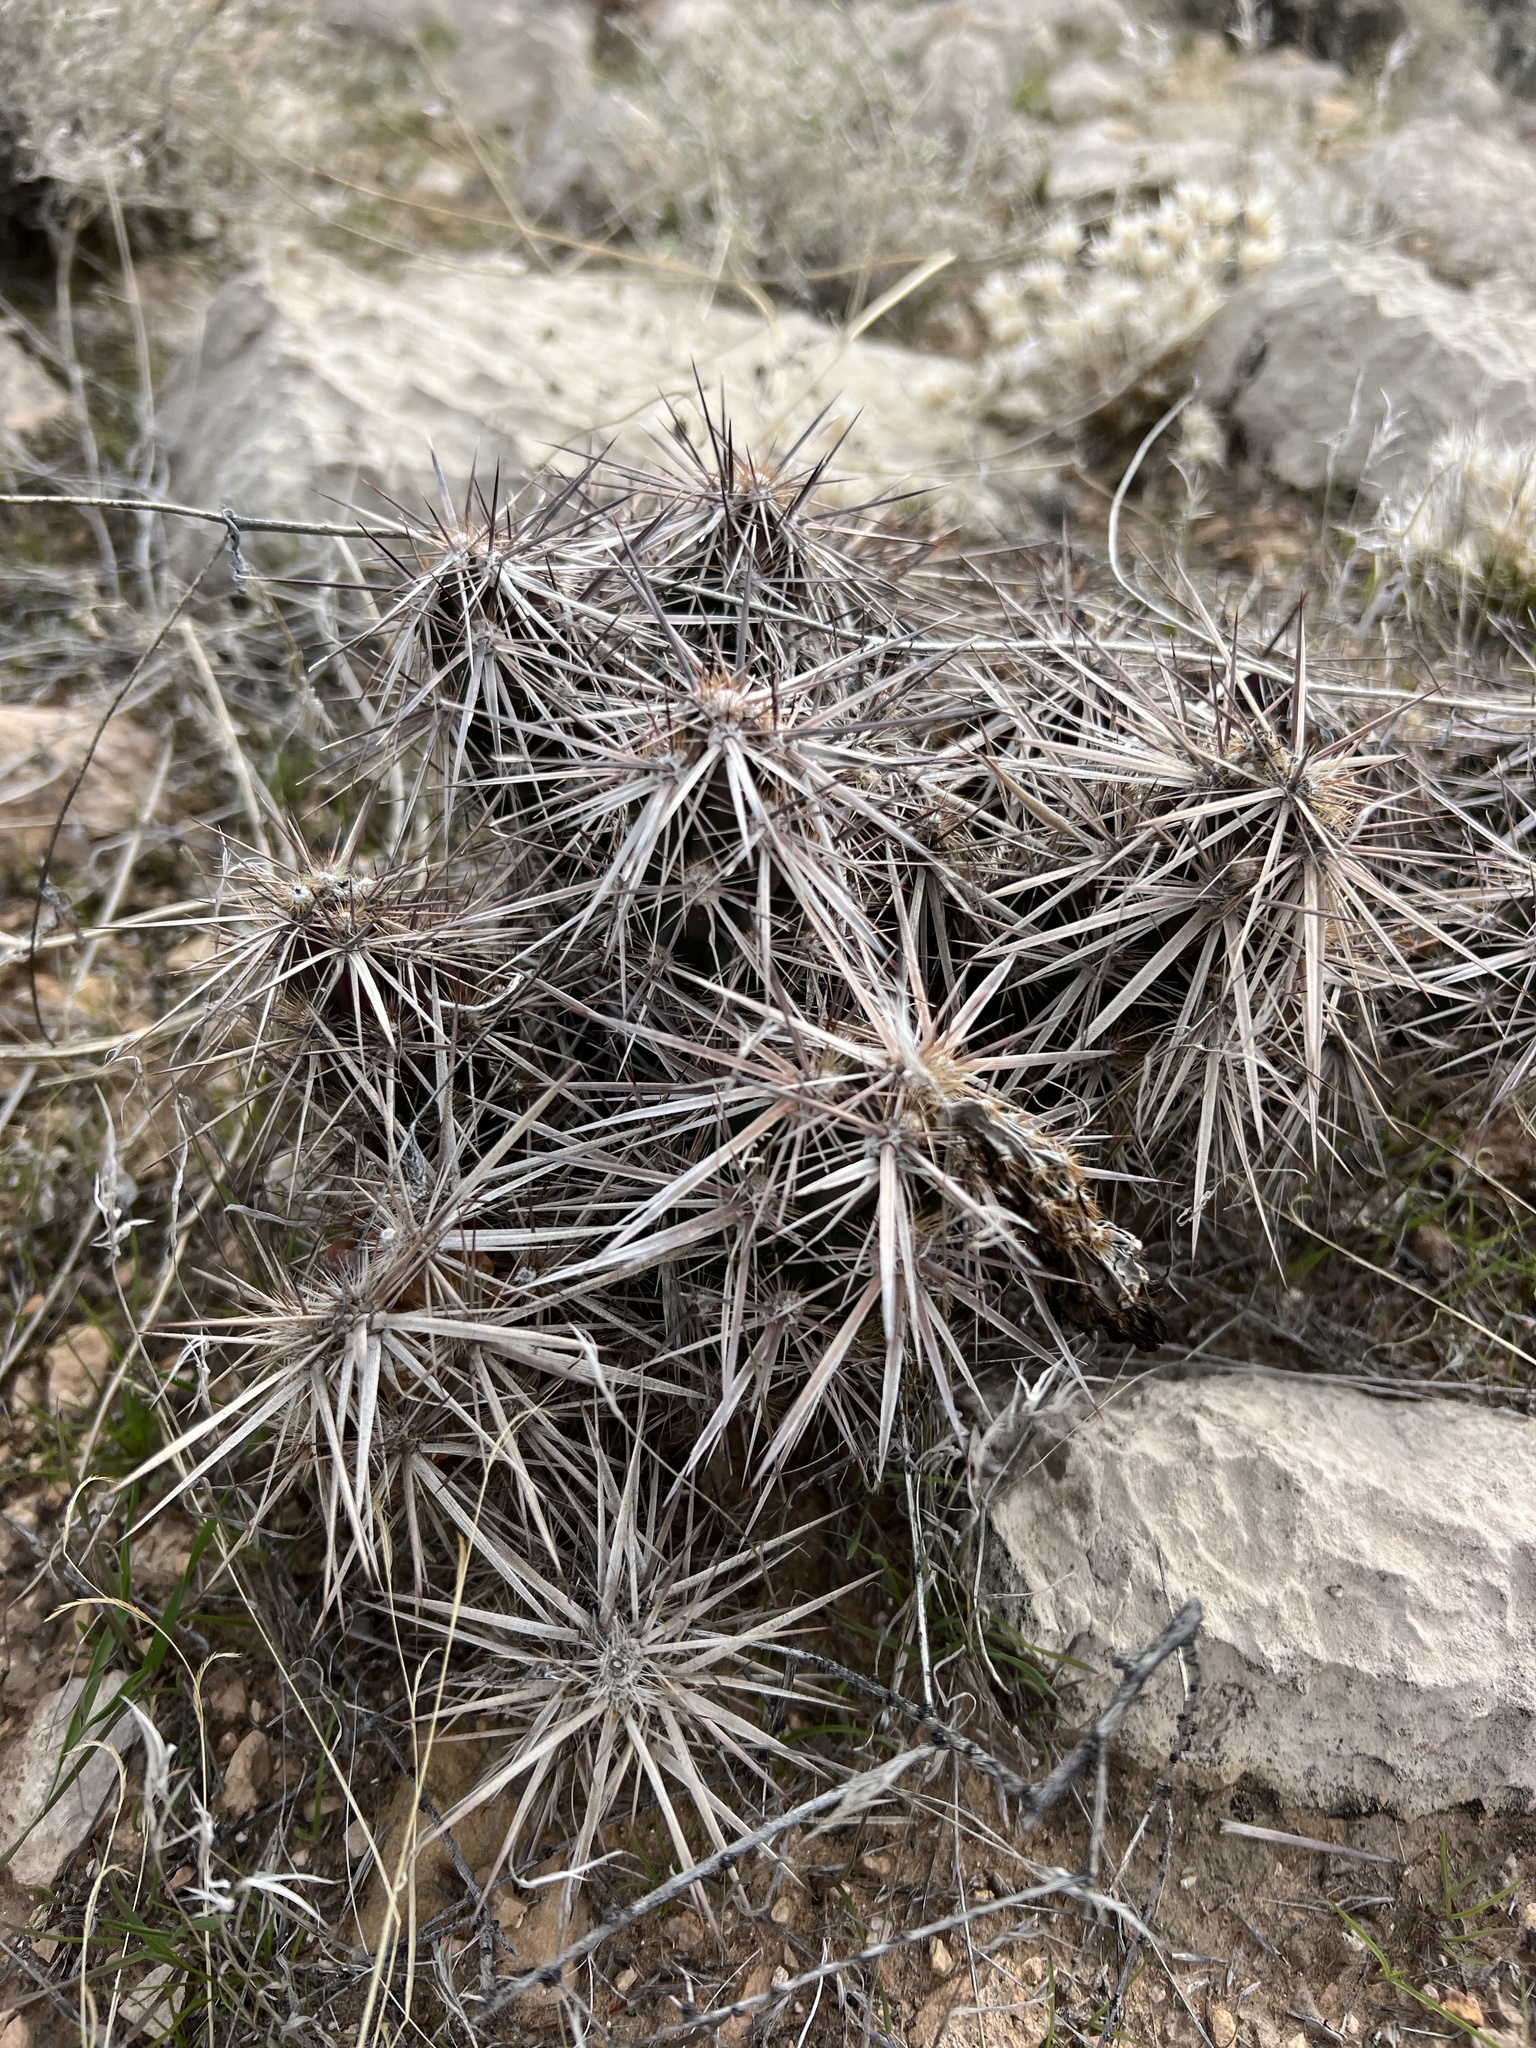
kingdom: Plantae
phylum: Tracheophyta
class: Magnoliopsida
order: Caryophyllales
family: Cactaceae
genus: Grusonia
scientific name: Grusonia parishiorum
